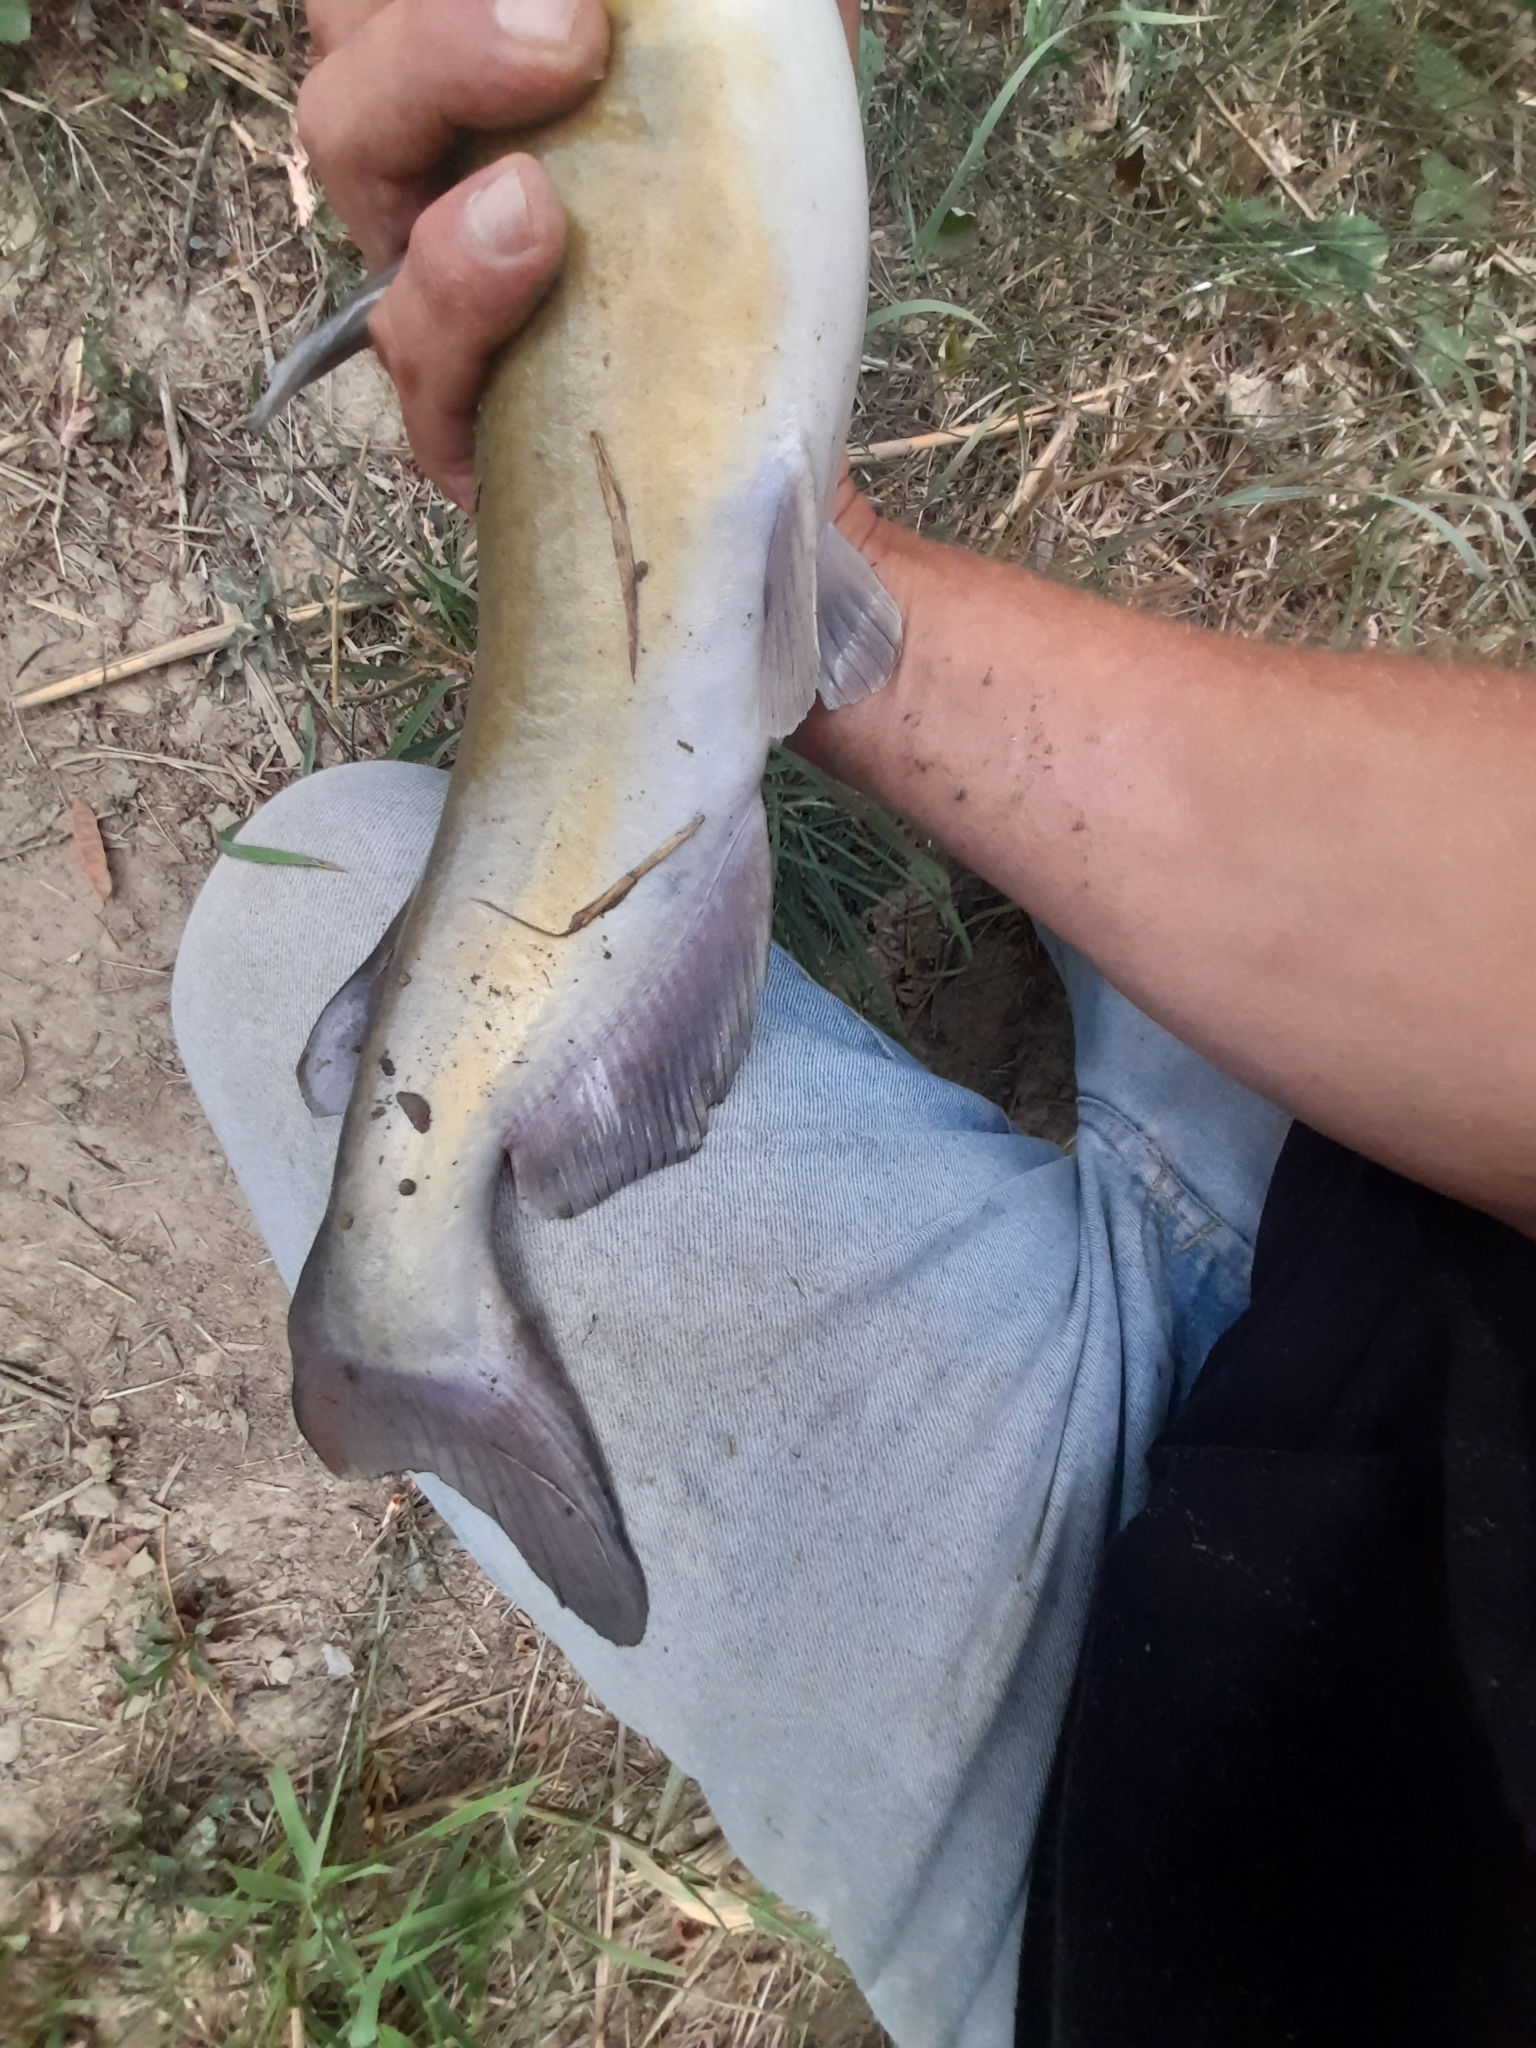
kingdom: Animalia
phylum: Chordata
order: Siluriformes
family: Ictaluridae
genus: Ictalurus
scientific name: Ictalurus punctatus
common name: Channel catfish
